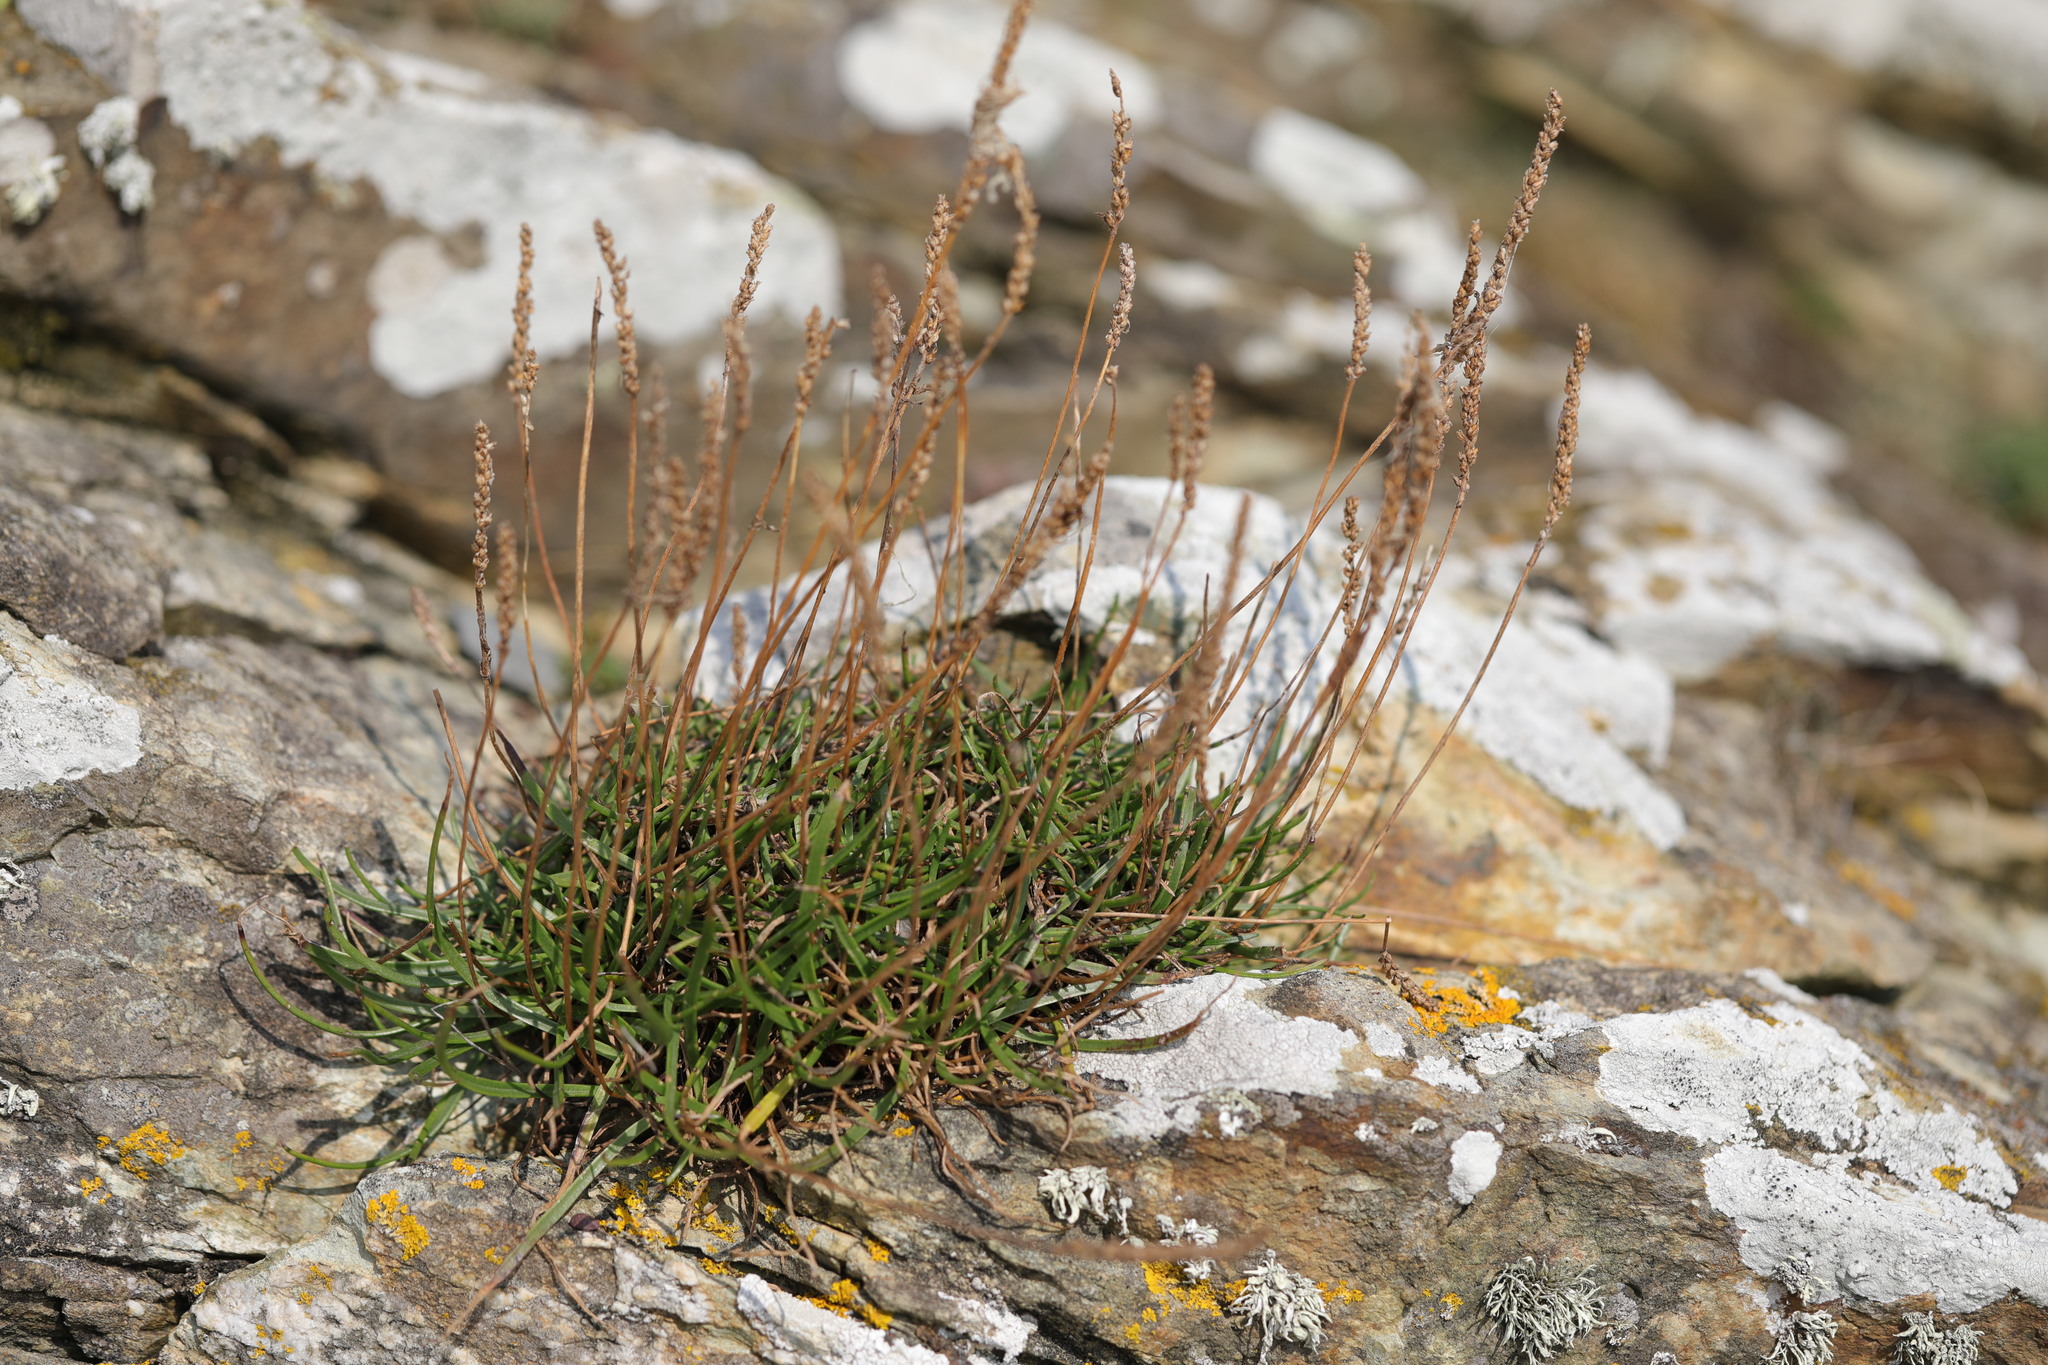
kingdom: Plantae
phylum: Tracheophyta
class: Magnoliopsida
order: Lamiales
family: Plantaginaceae
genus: Plantago
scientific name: Plantago maritima
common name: Sea plantain
